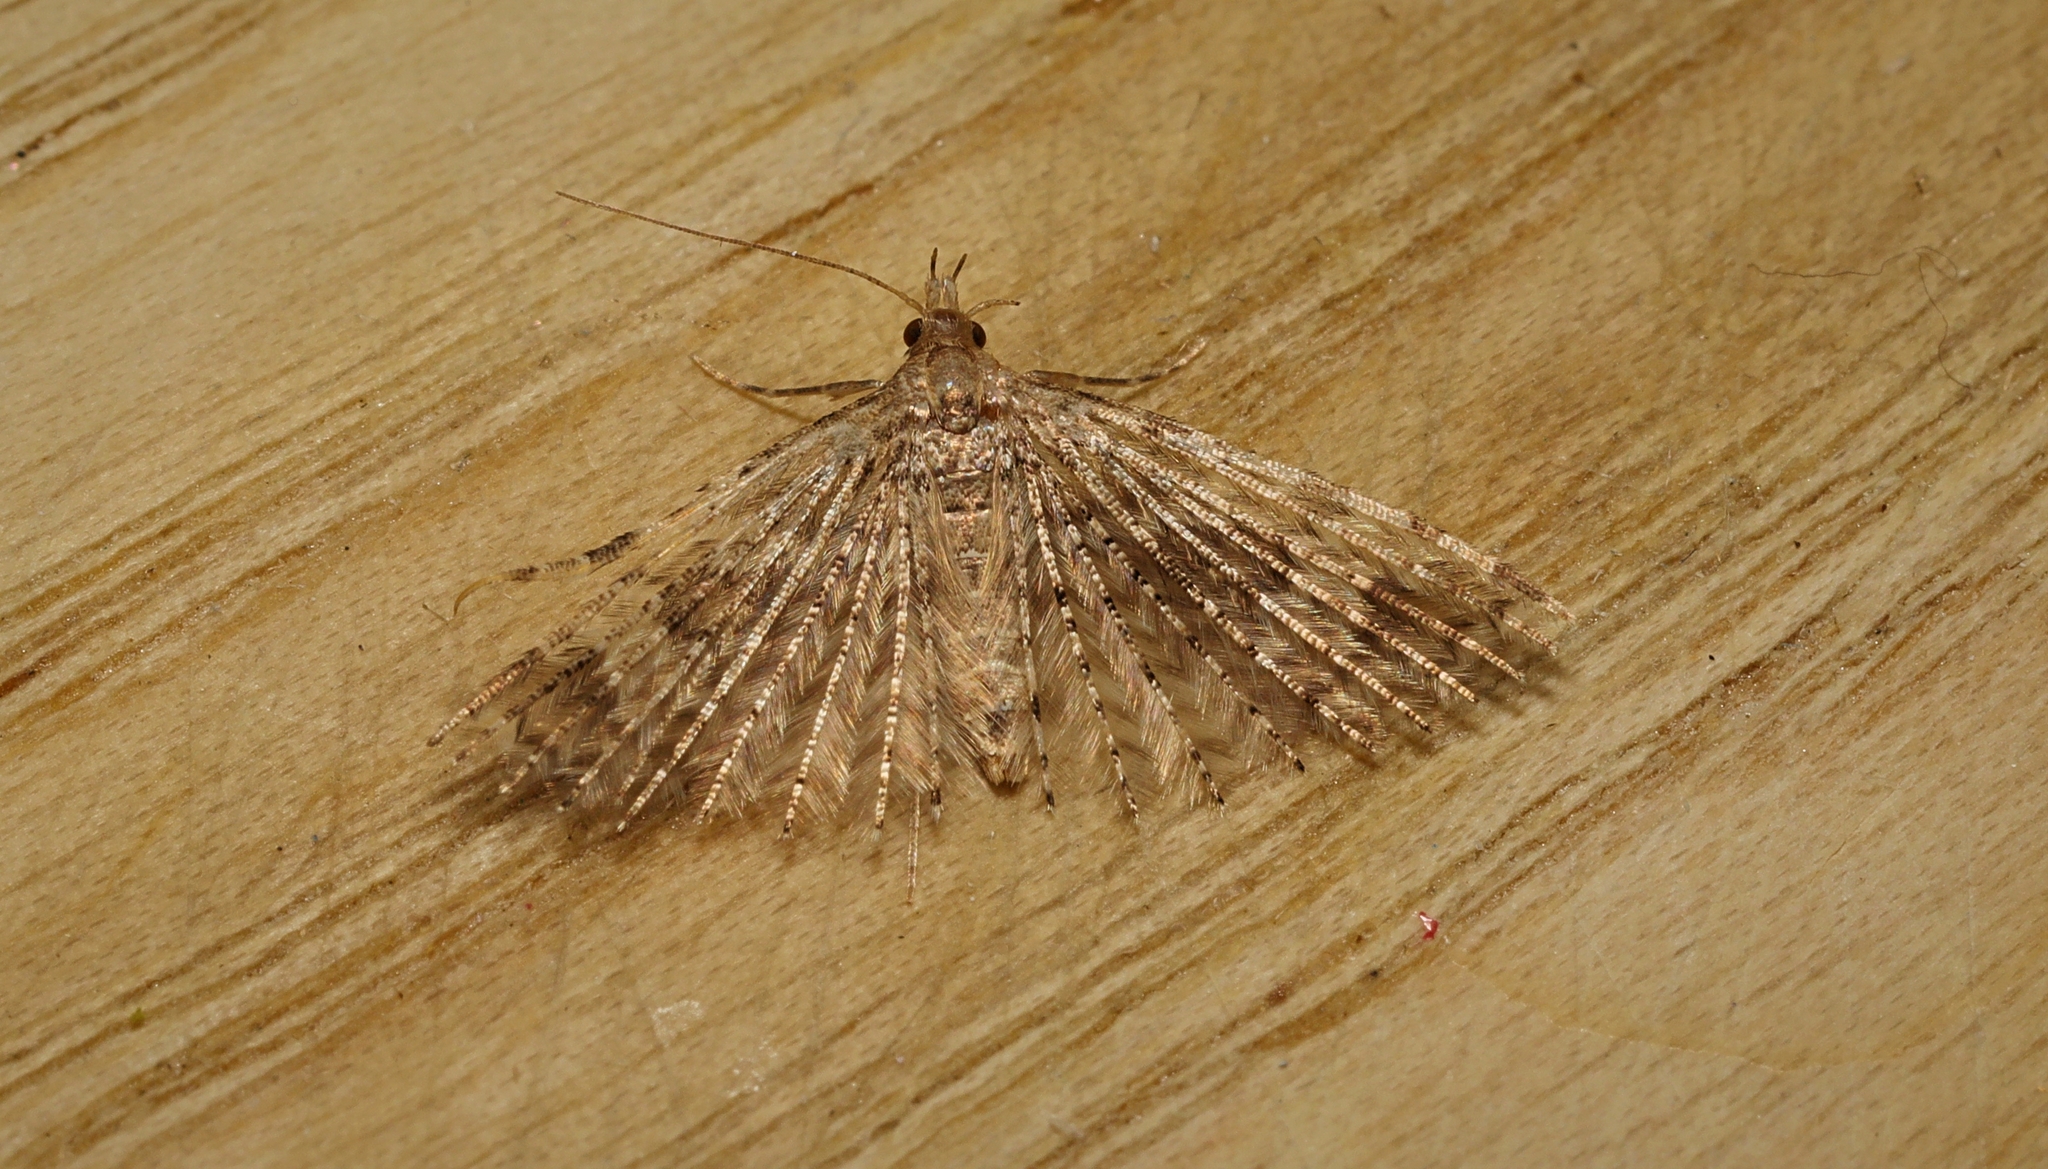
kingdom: Animalia
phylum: Arthropoda
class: Insecta
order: Lepidoptera
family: Alucitidae
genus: Alucita
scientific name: Alucita hexadactyla
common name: Twenty-plume moth
